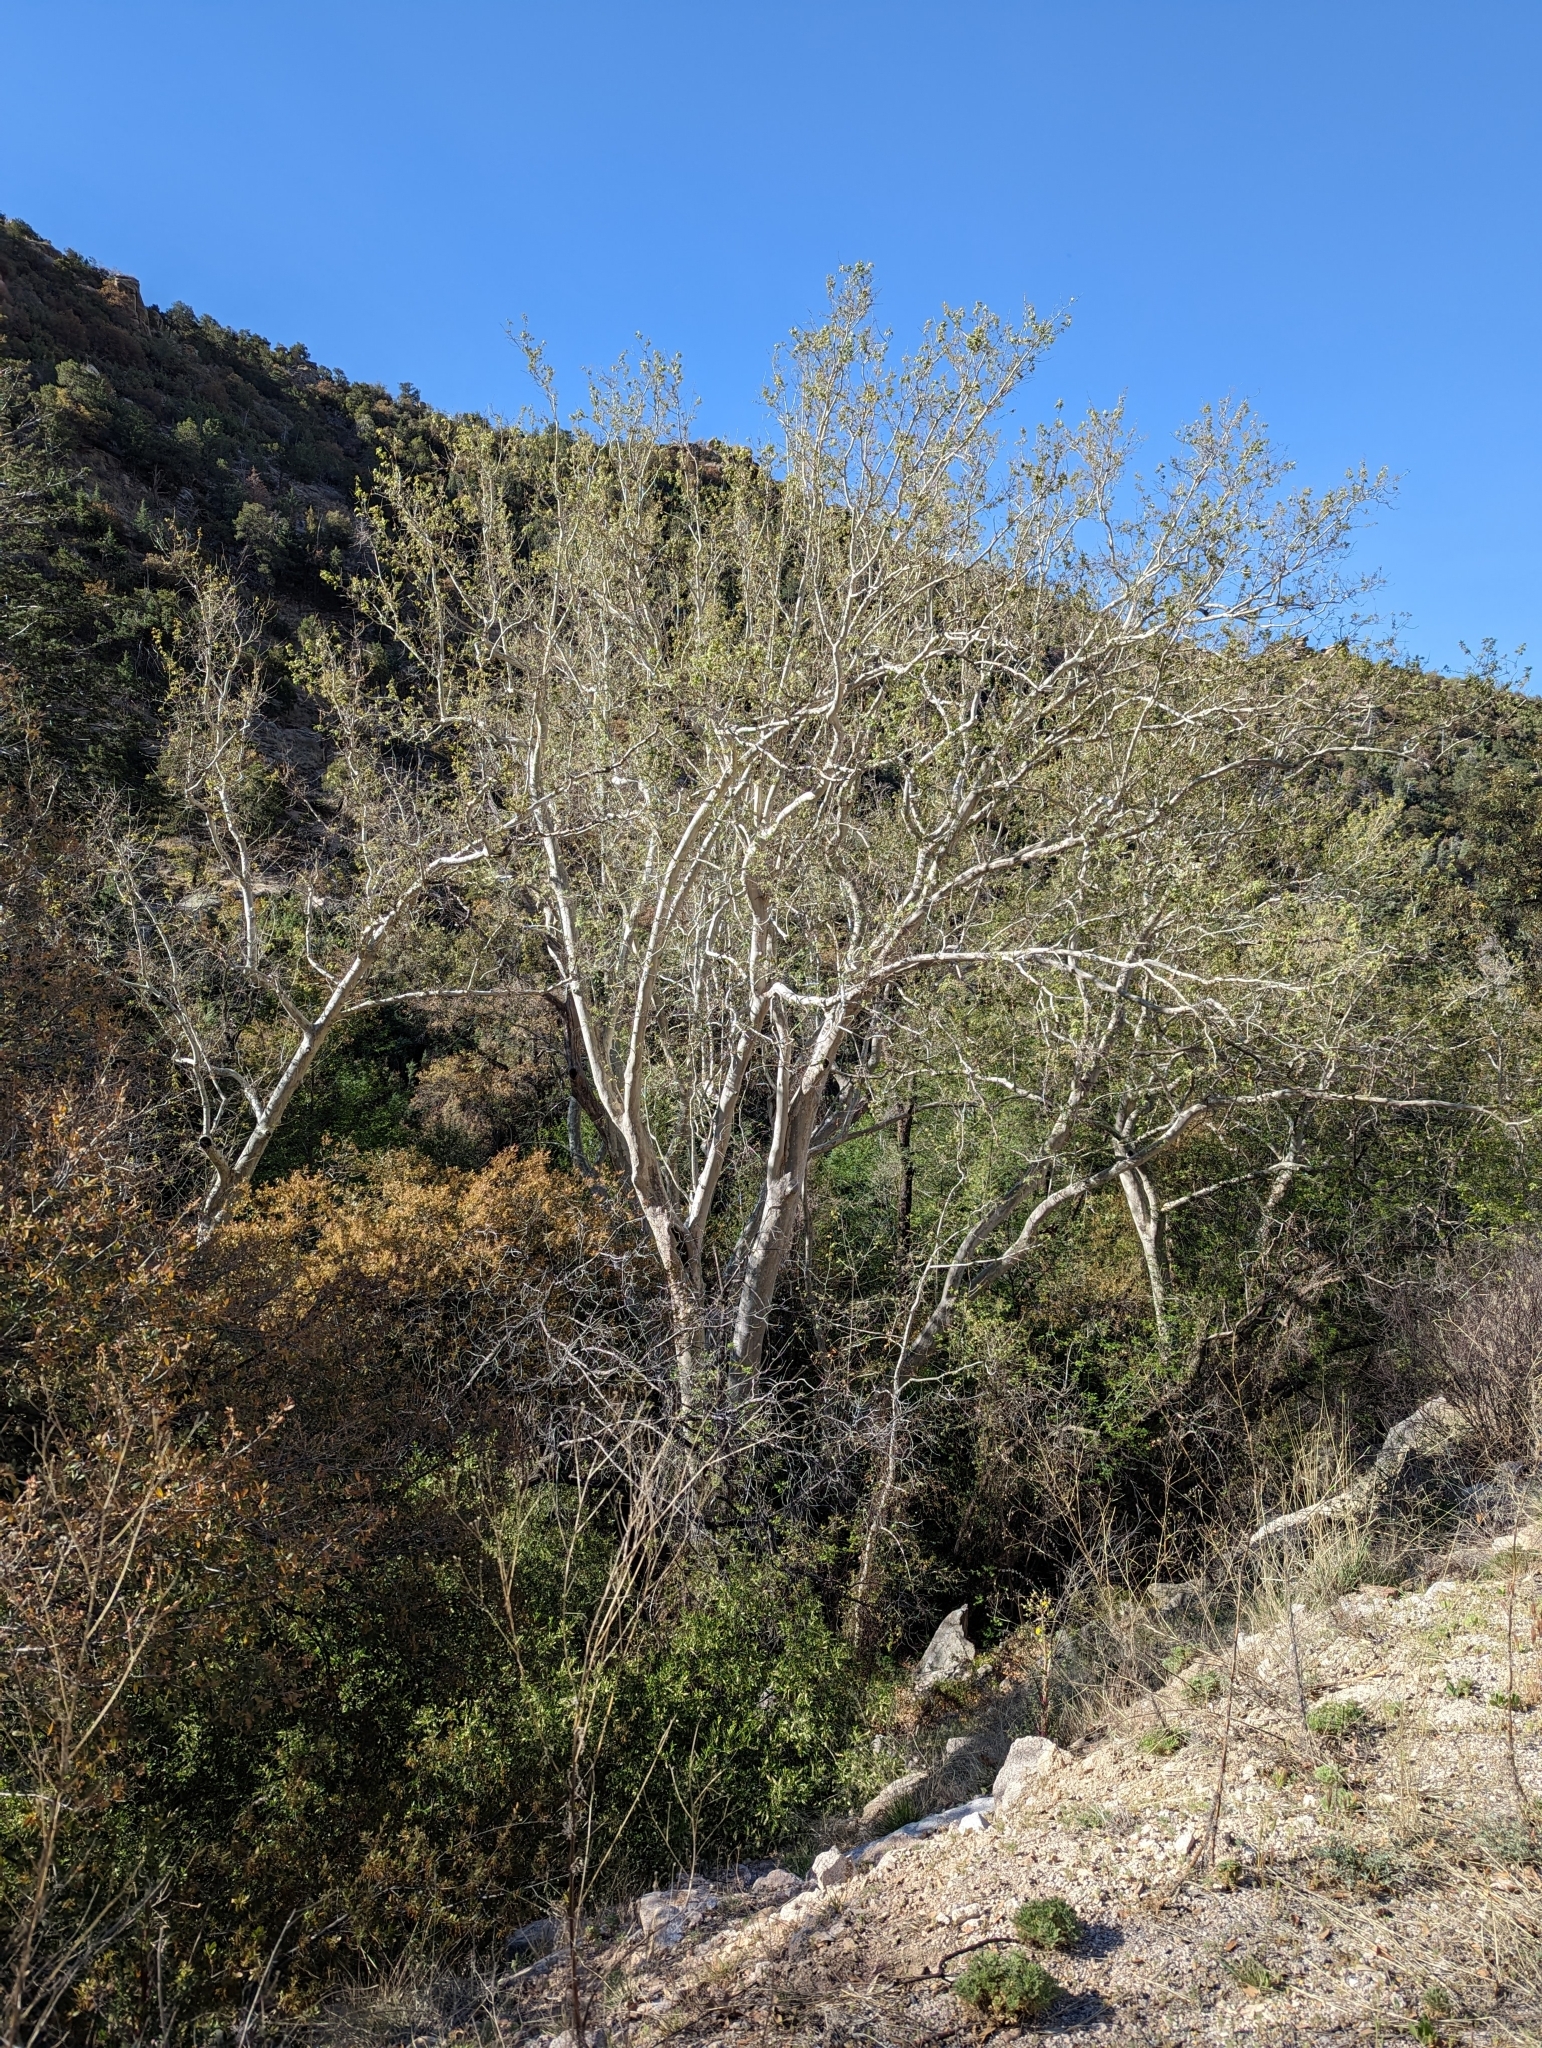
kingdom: Plantae
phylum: Tracheophyta
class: Magnoliopsida
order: Proteales
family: Platanaceae
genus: Platanus
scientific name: Platanus wrightii
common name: Arizona sycamore
